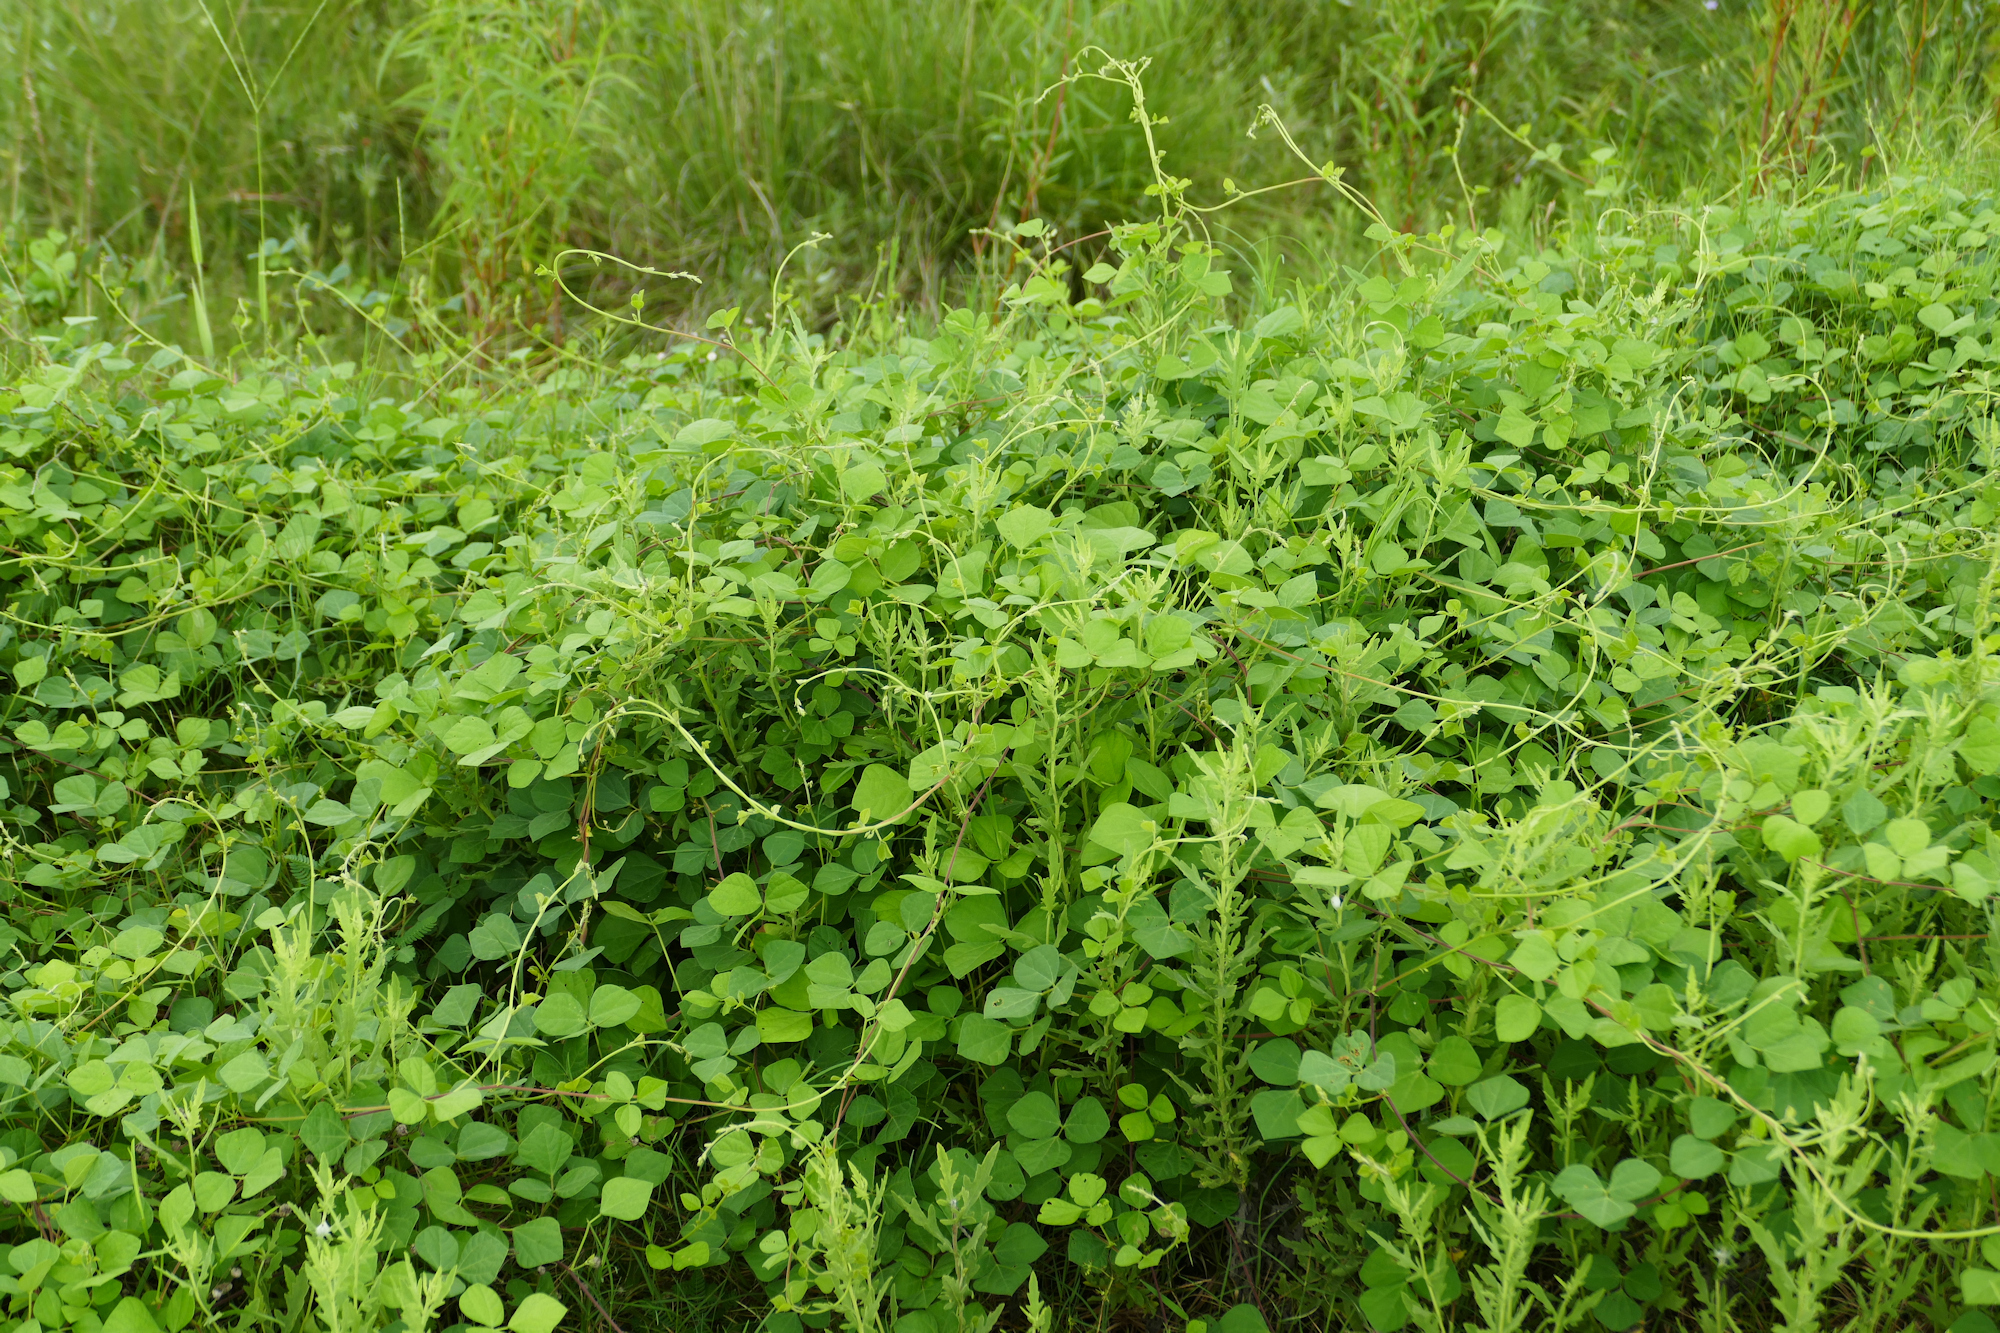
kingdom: Plantae
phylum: Tracheophyta
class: Magnoliopsida
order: Fabales
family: Fabaceae
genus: Rhynchosia
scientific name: Rhynchosia minima
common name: Least snoutbean
